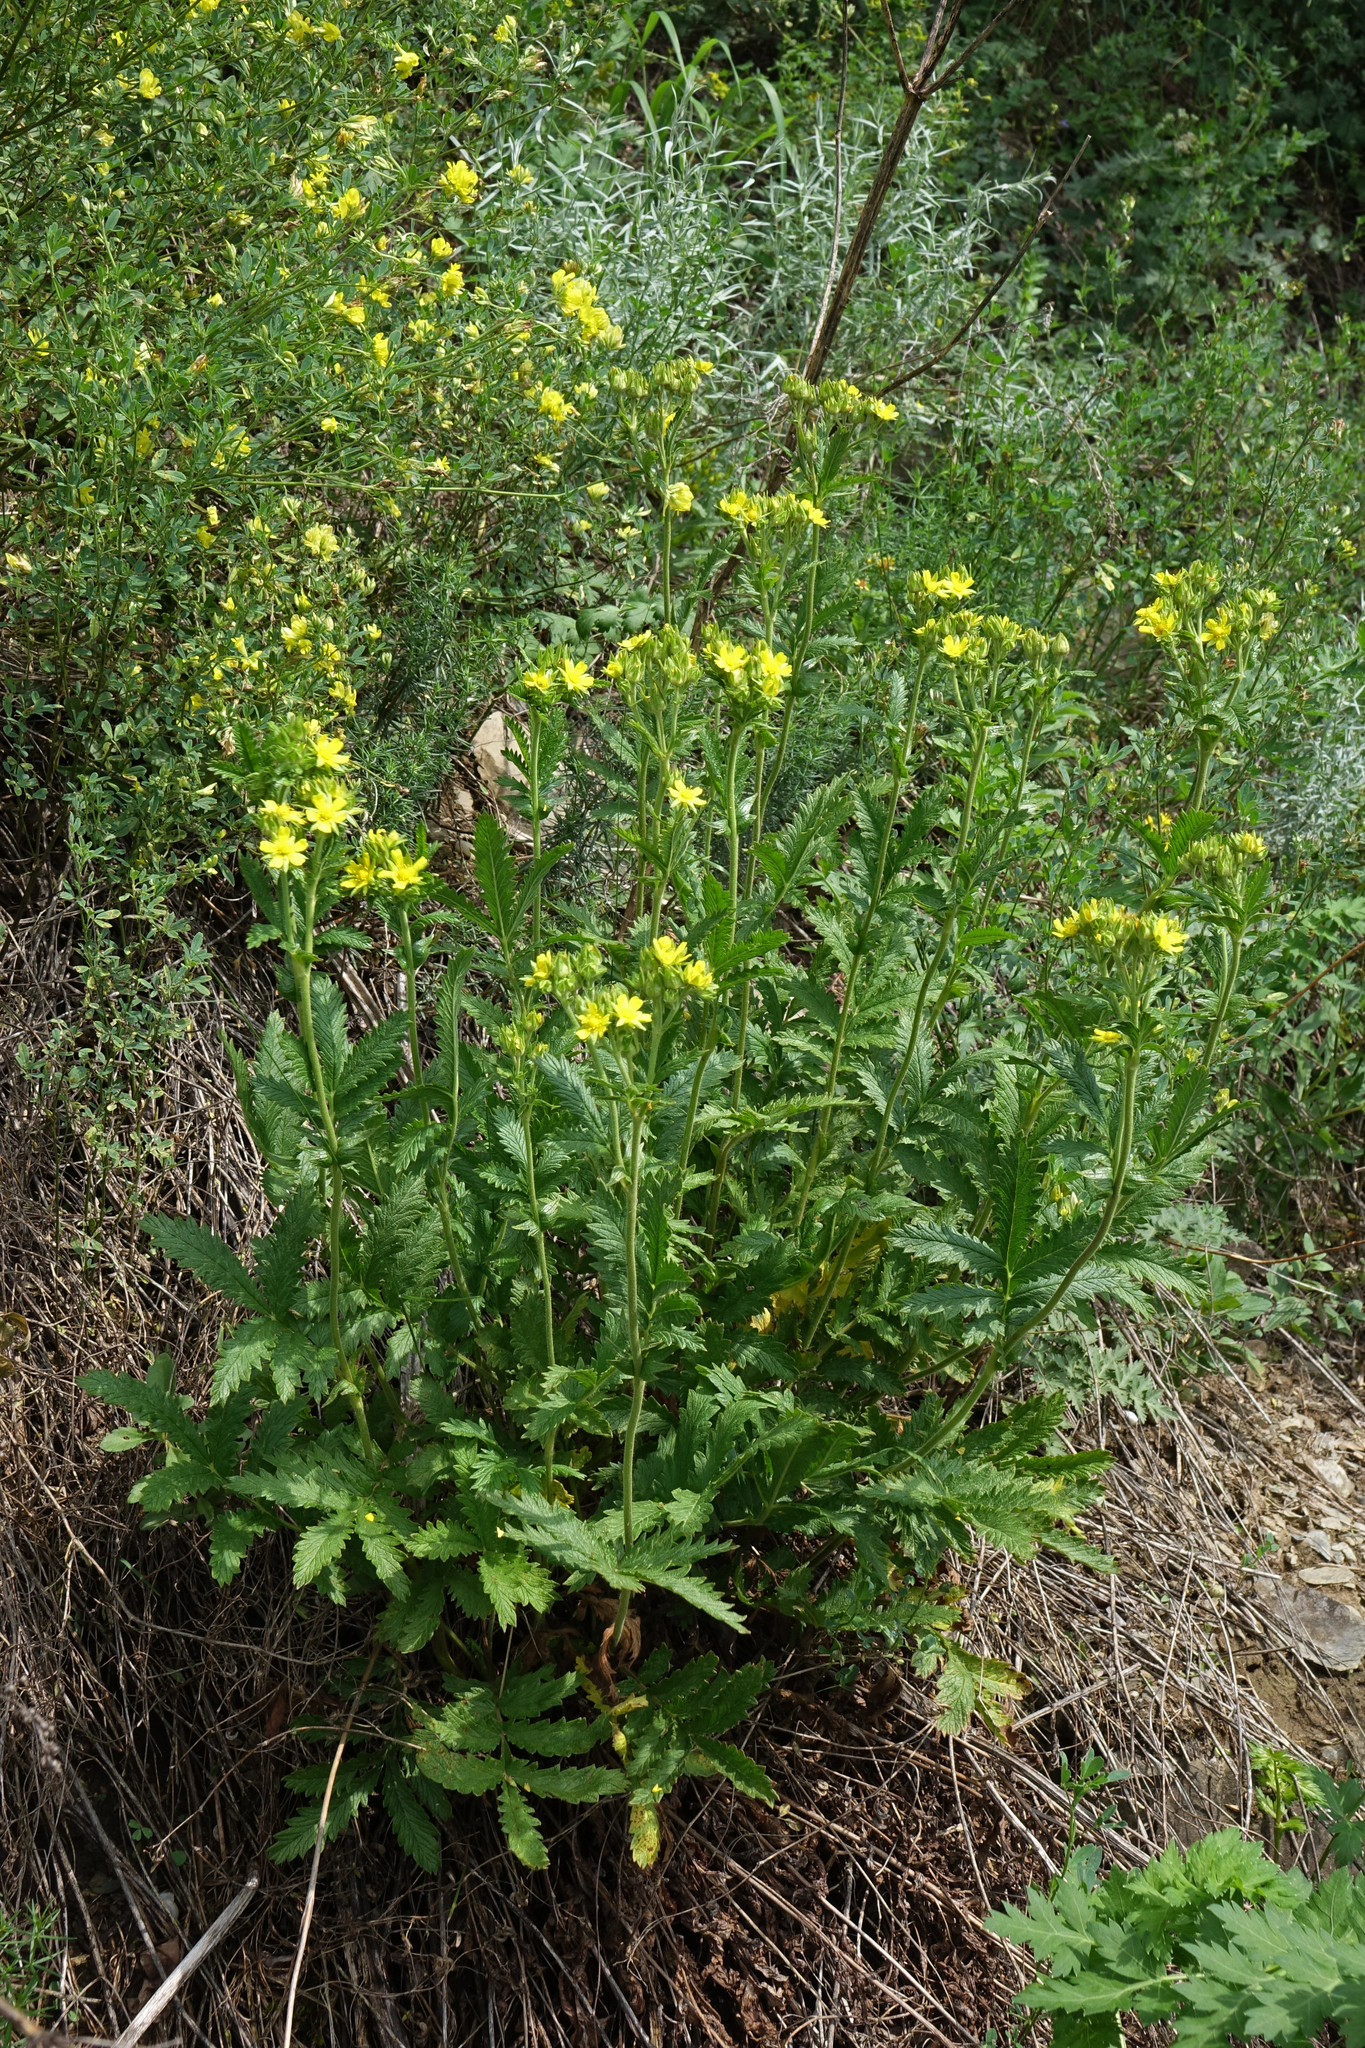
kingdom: Plantae
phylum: Tracheophyta
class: Magnoliopsida
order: Rosales
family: Rosaceae
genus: Potentilla
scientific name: Potentilla longifolia
